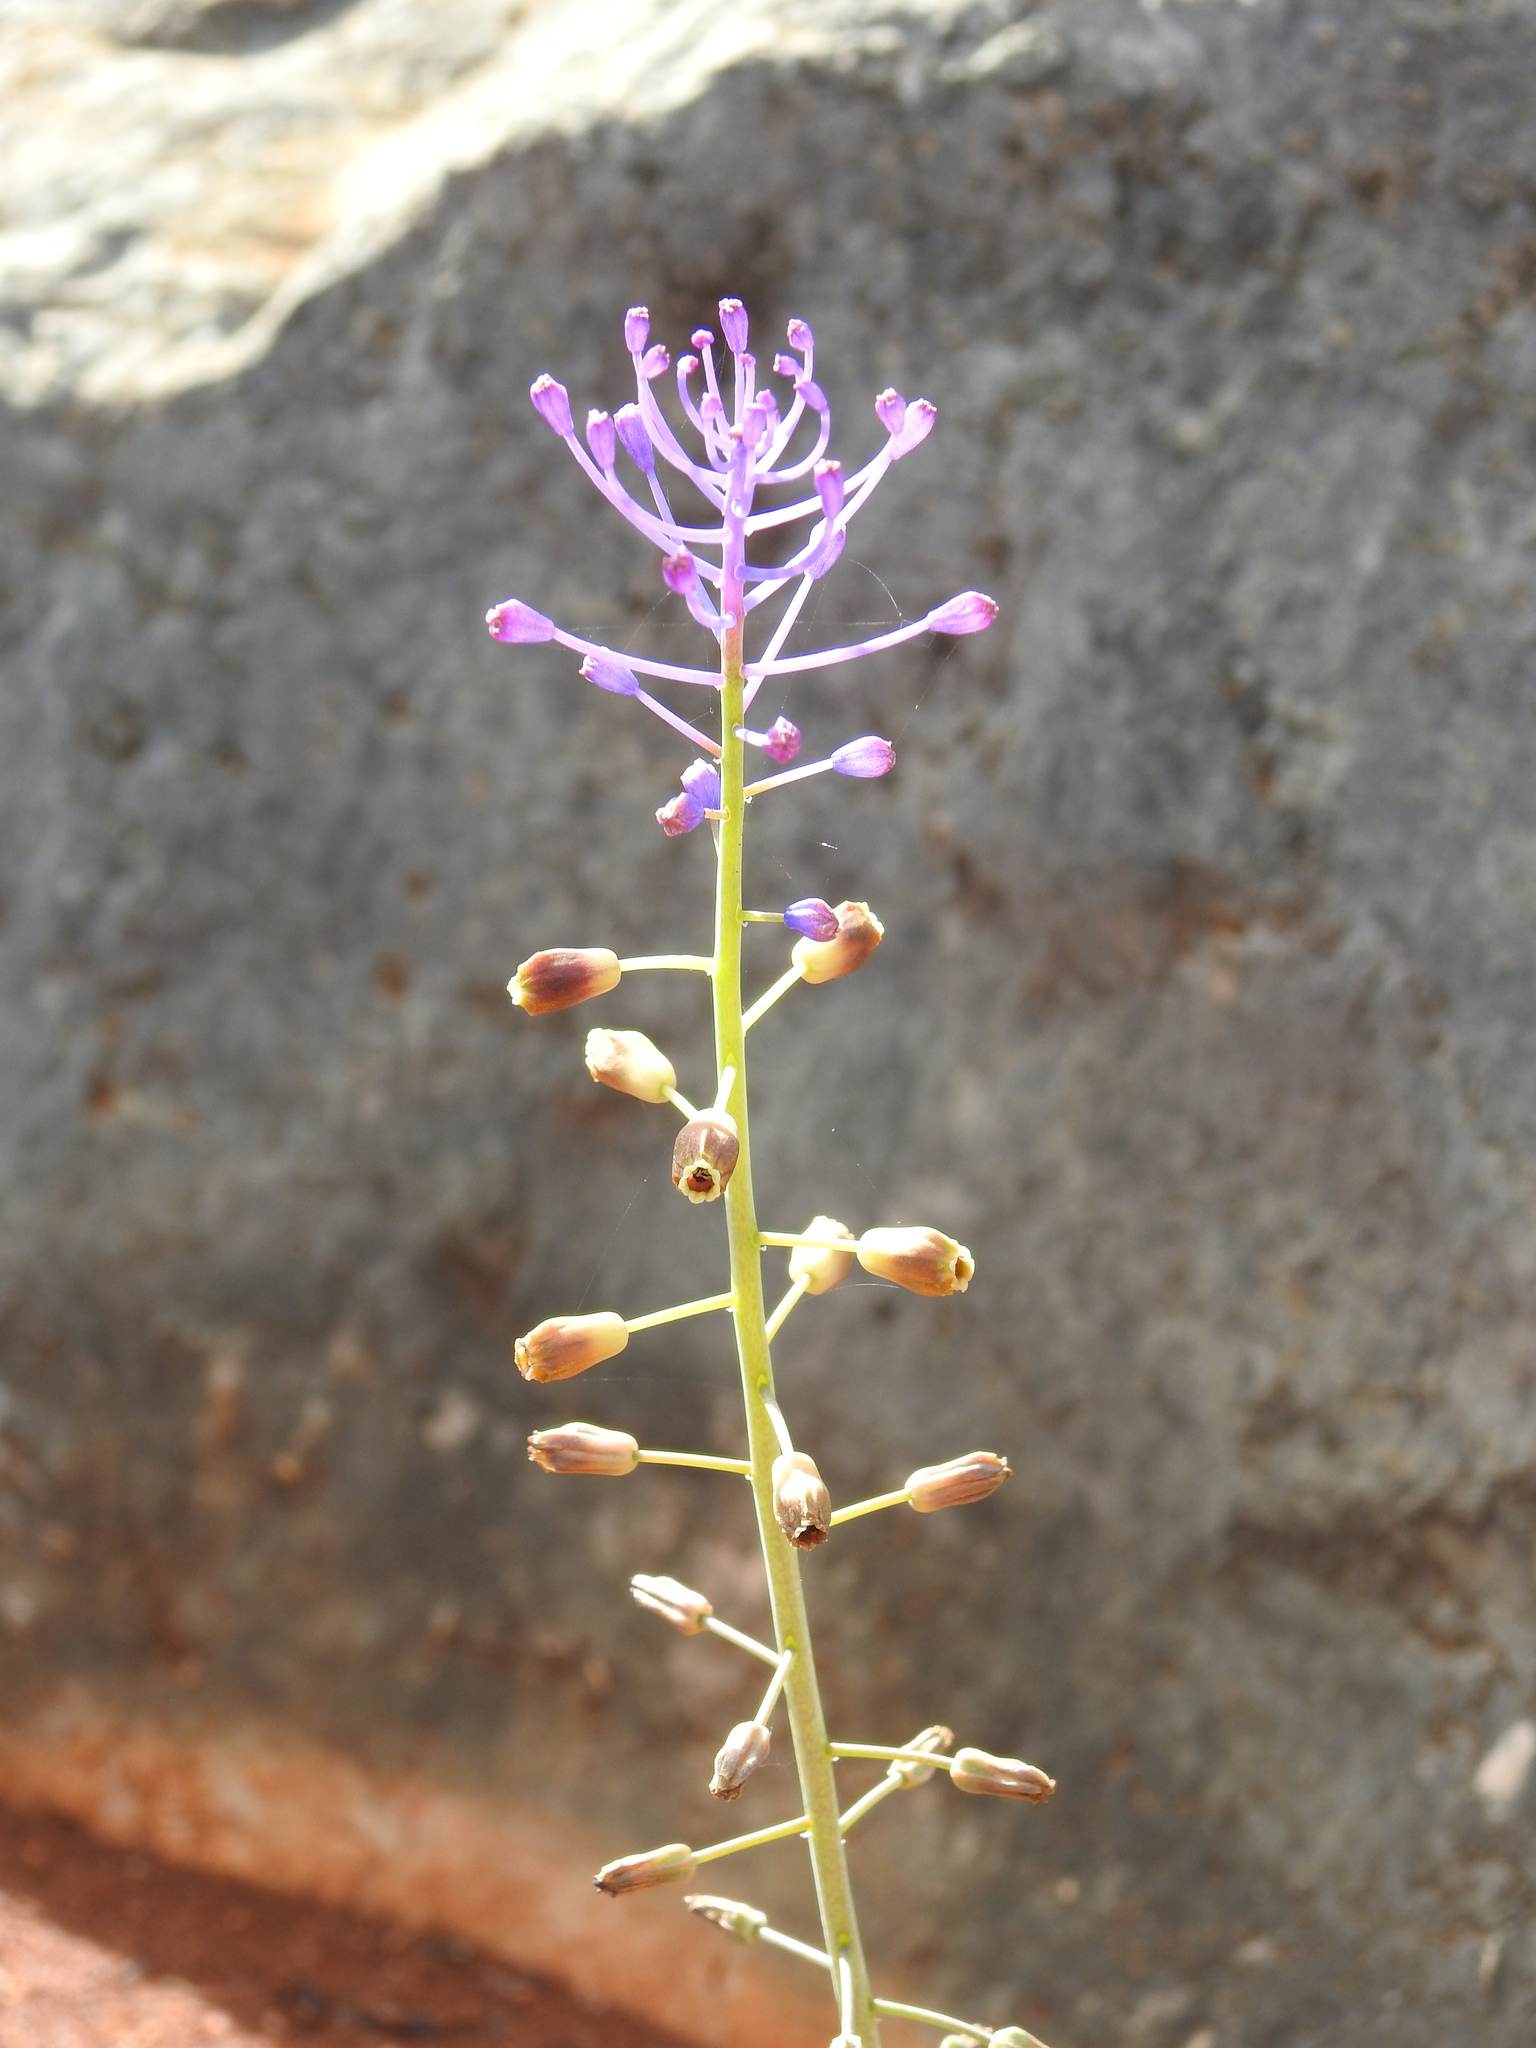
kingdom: Plantae
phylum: Tracheophyta
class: Liliopsida
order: Asparagales
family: Asparagaceae
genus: Muscari
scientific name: Muscari comosum
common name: Tassel hyacinth
